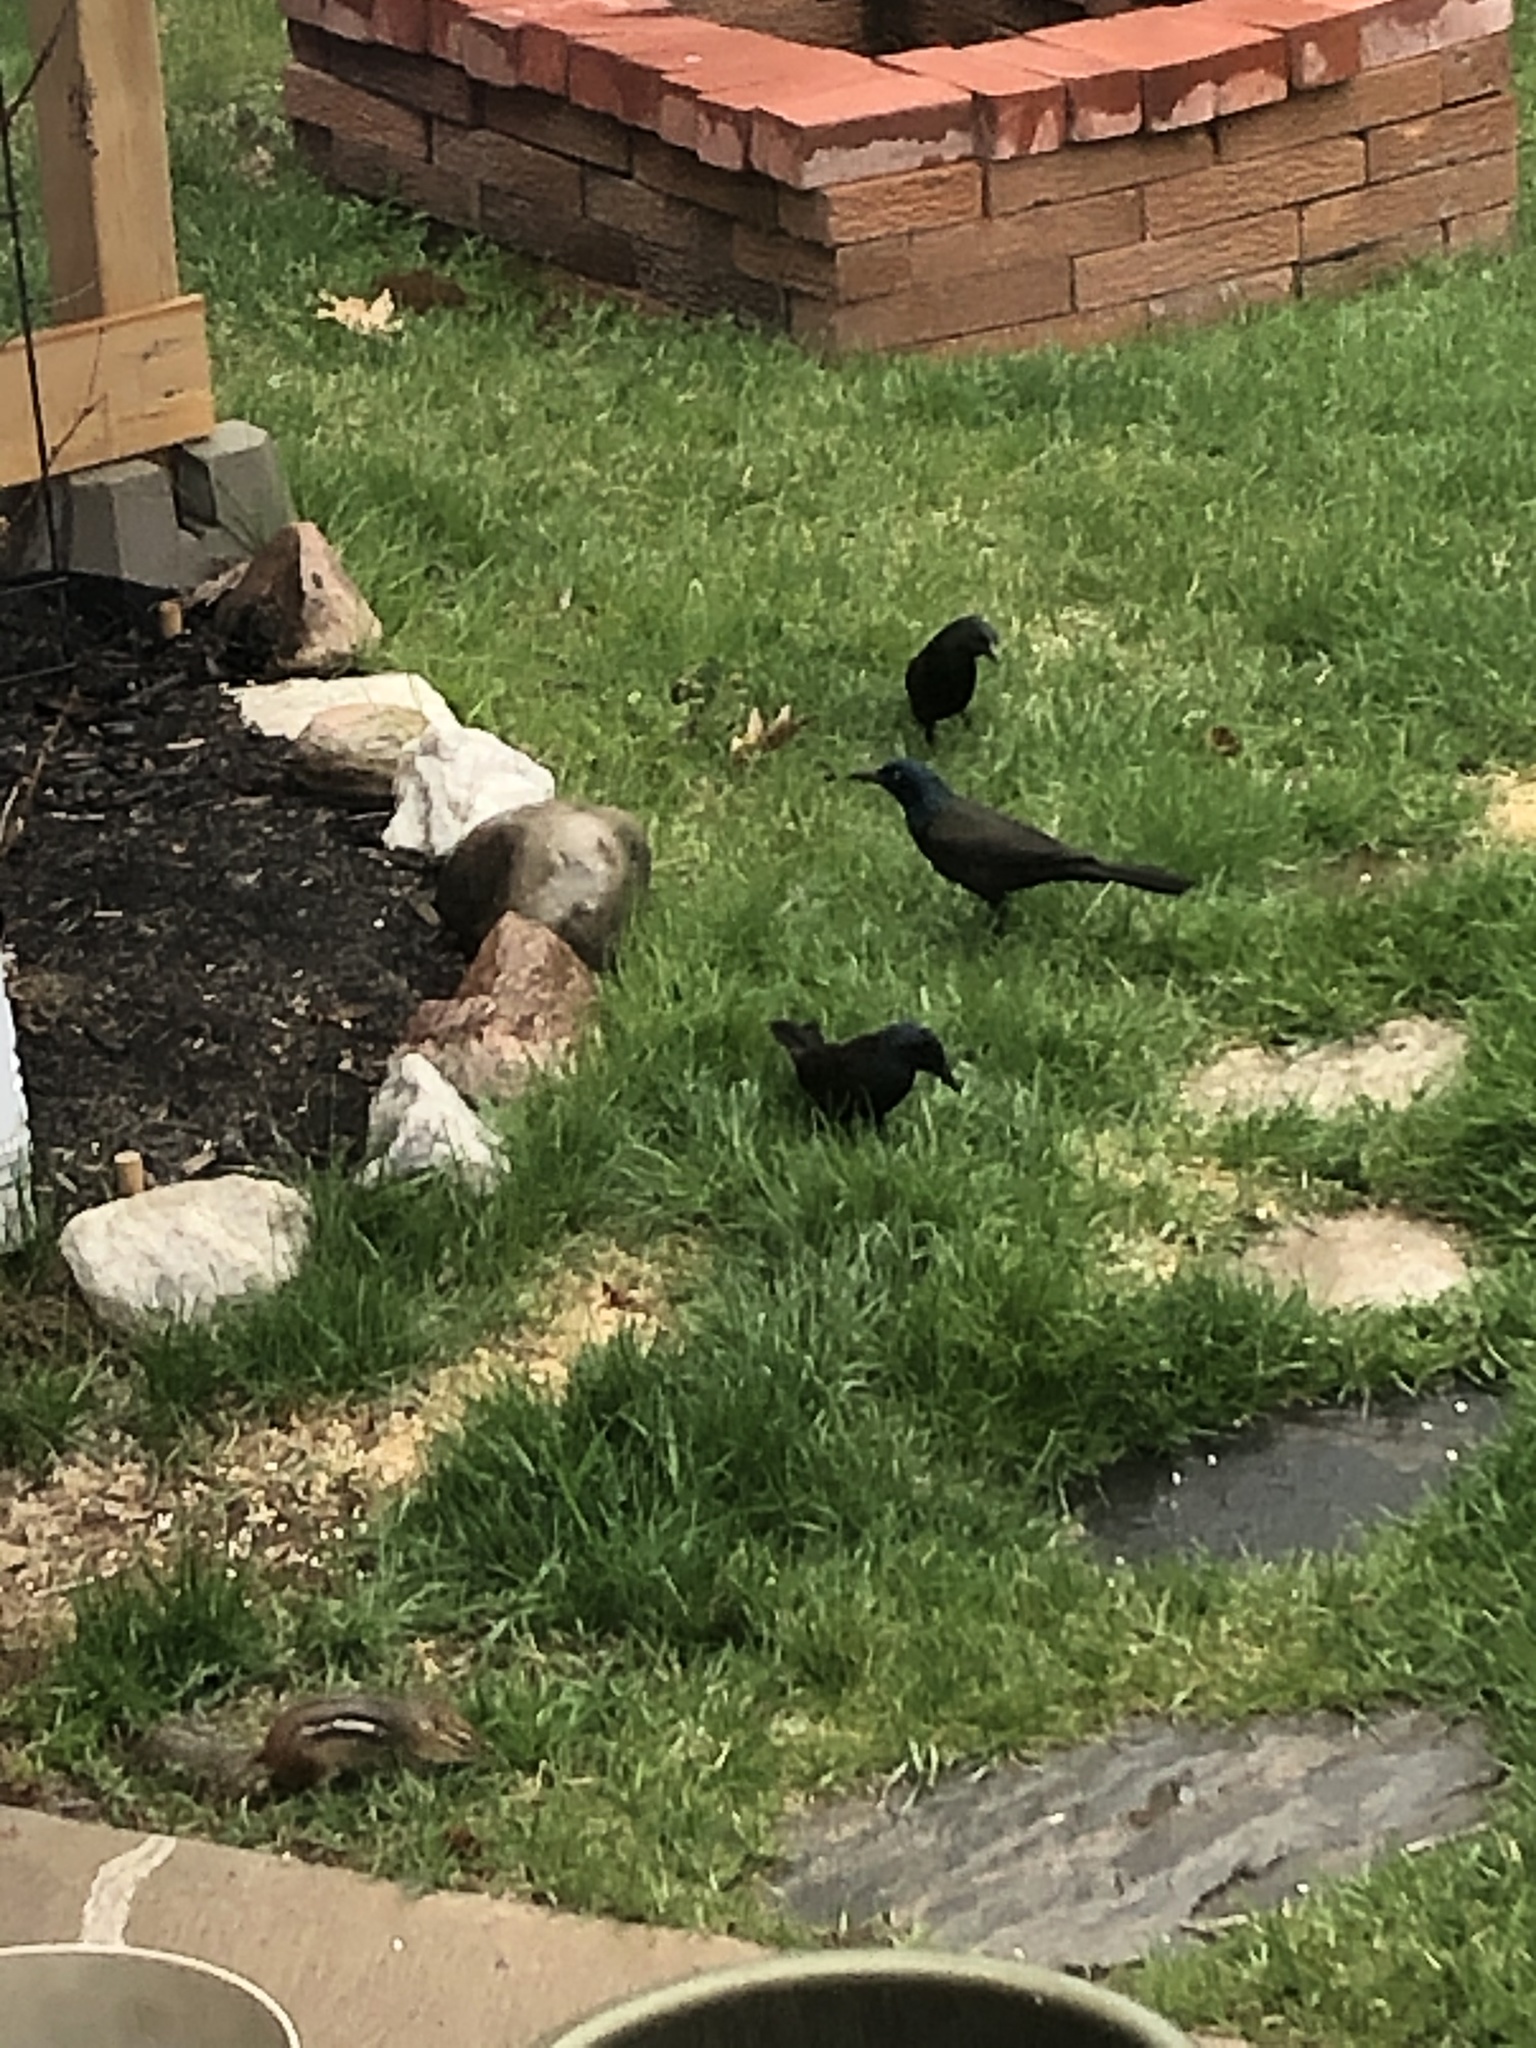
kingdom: Animalia
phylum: Chordata
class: Aves
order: Passeriformes
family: Icteridae
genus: Quiscalus
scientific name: Quiscalus quiscula
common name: Common grackle
